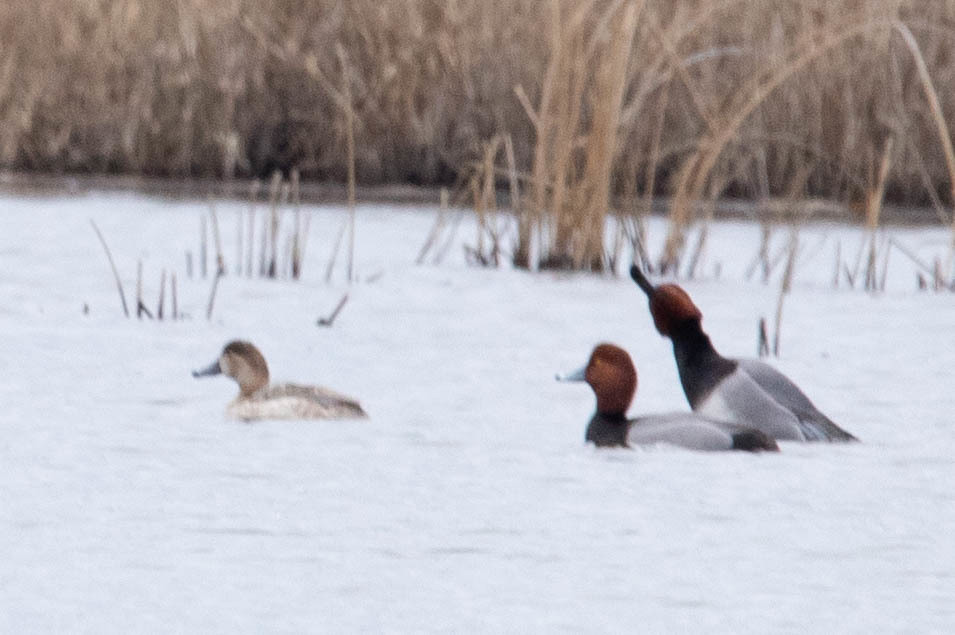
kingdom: Animalia
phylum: Chordata
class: Aves
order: Anseriformes
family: Anatidae
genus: Aythya
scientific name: Aythya americana
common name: Redhead
